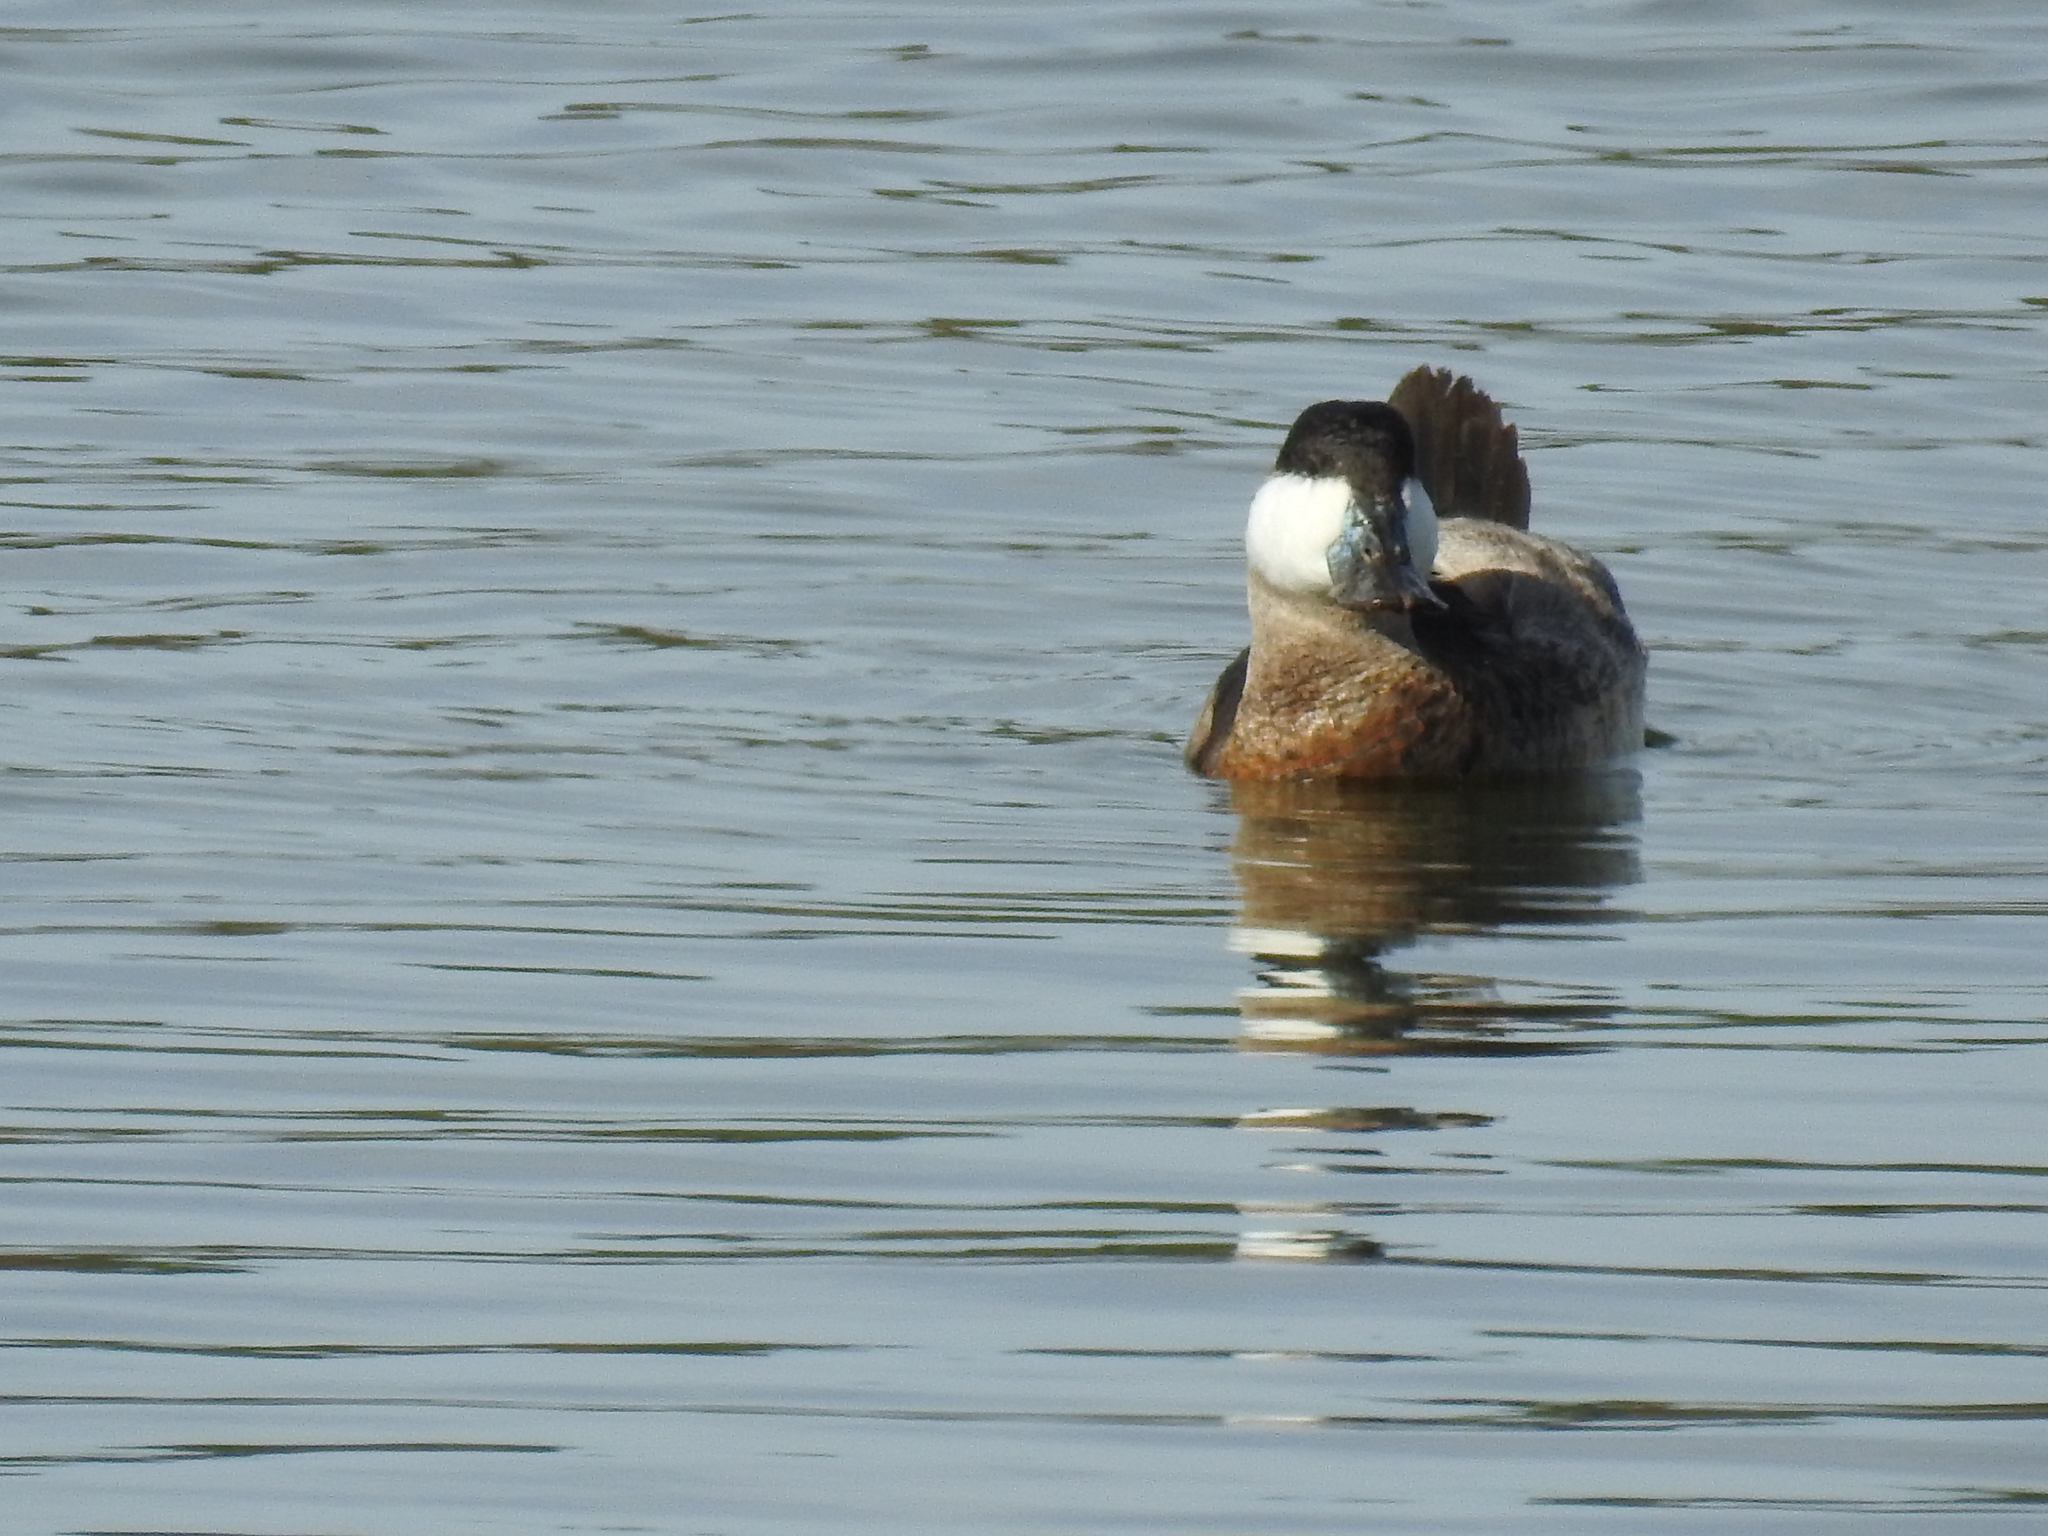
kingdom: Animalia
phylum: Chordata
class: Aves
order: Anseriformes
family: Anatidae
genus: Oxyura
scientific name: Oxyura jamaicensis
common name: Ruddy duck
